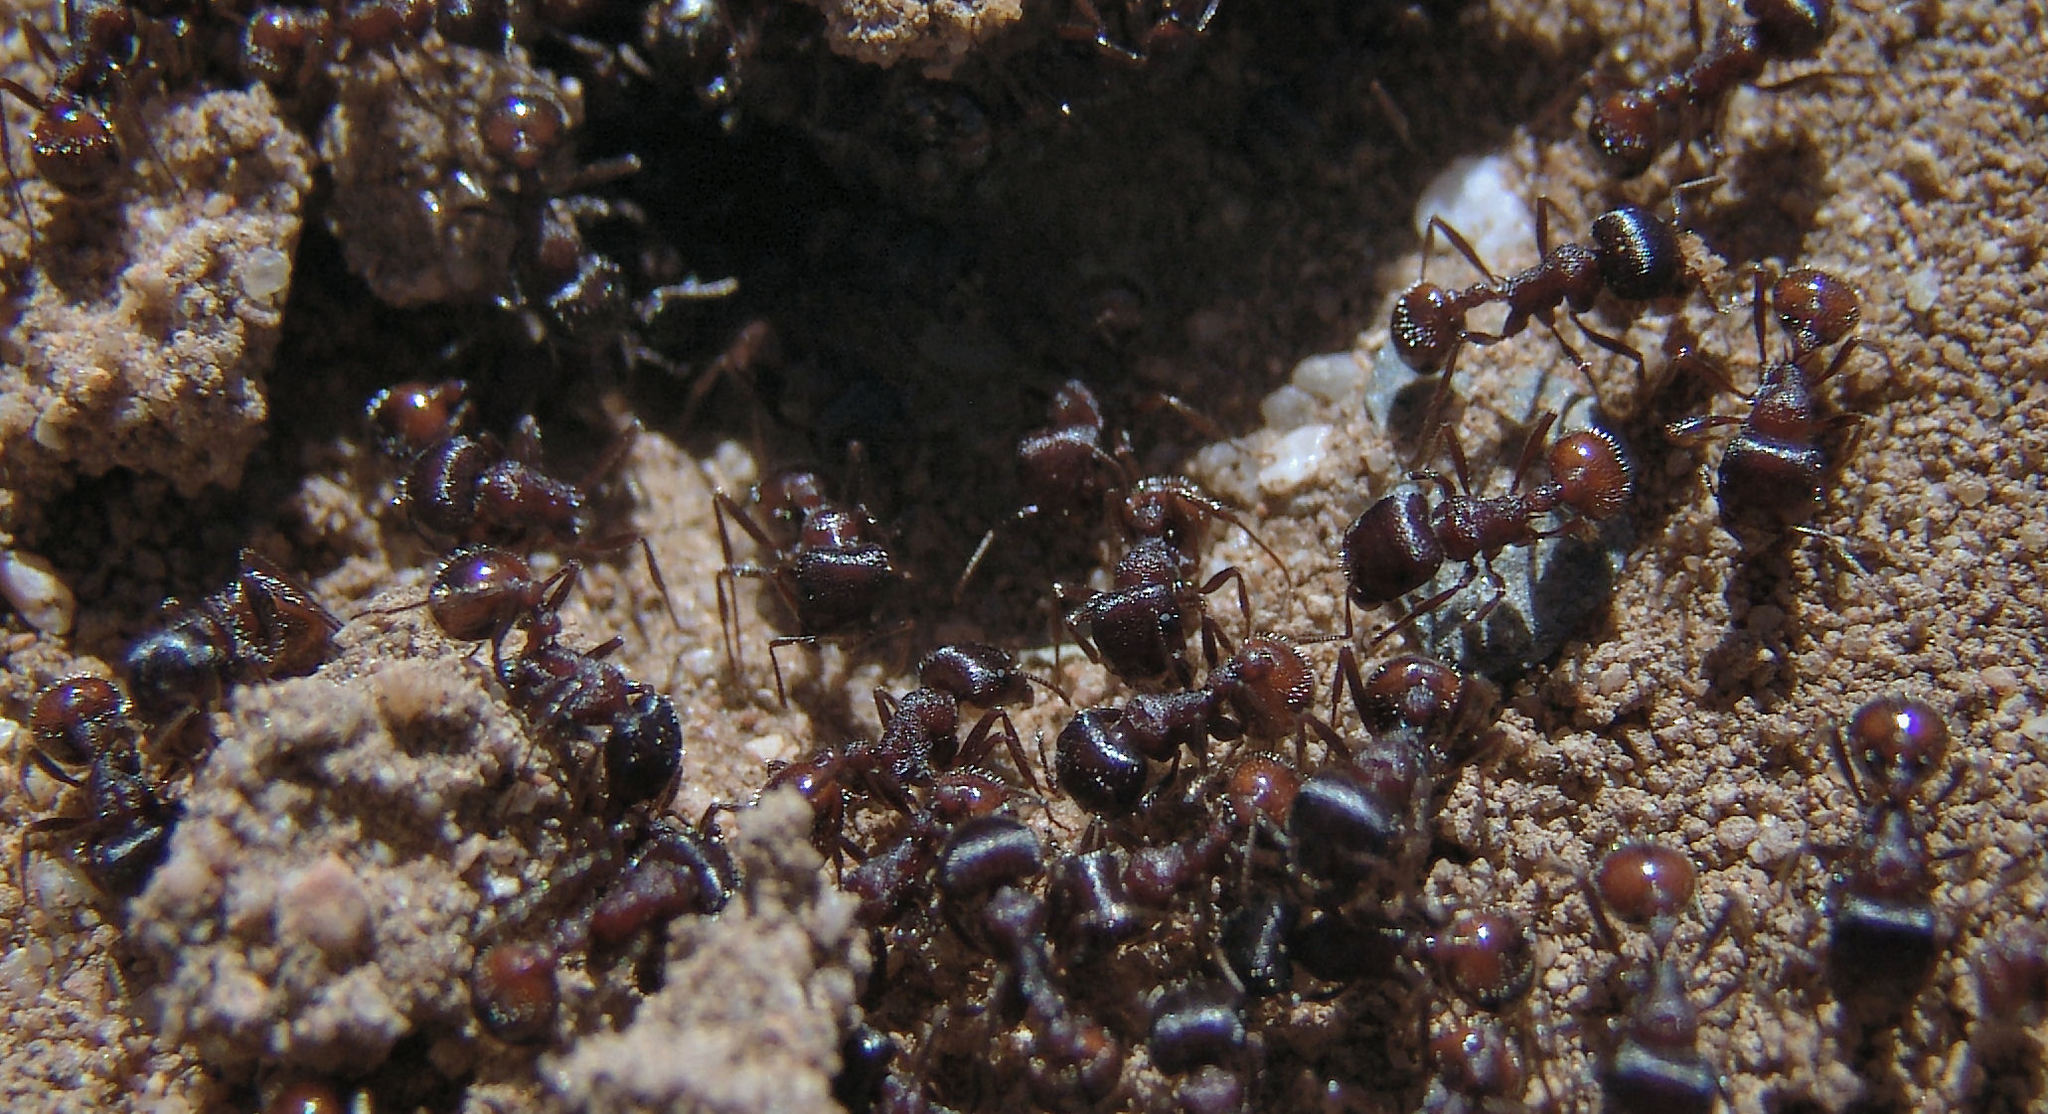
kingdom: Animalia
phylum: Arthropoda
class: Insecta
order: Hymenoptera
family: Formicidae
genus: Pogonomyrmex
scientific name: Pogonomyrmex rugosus
